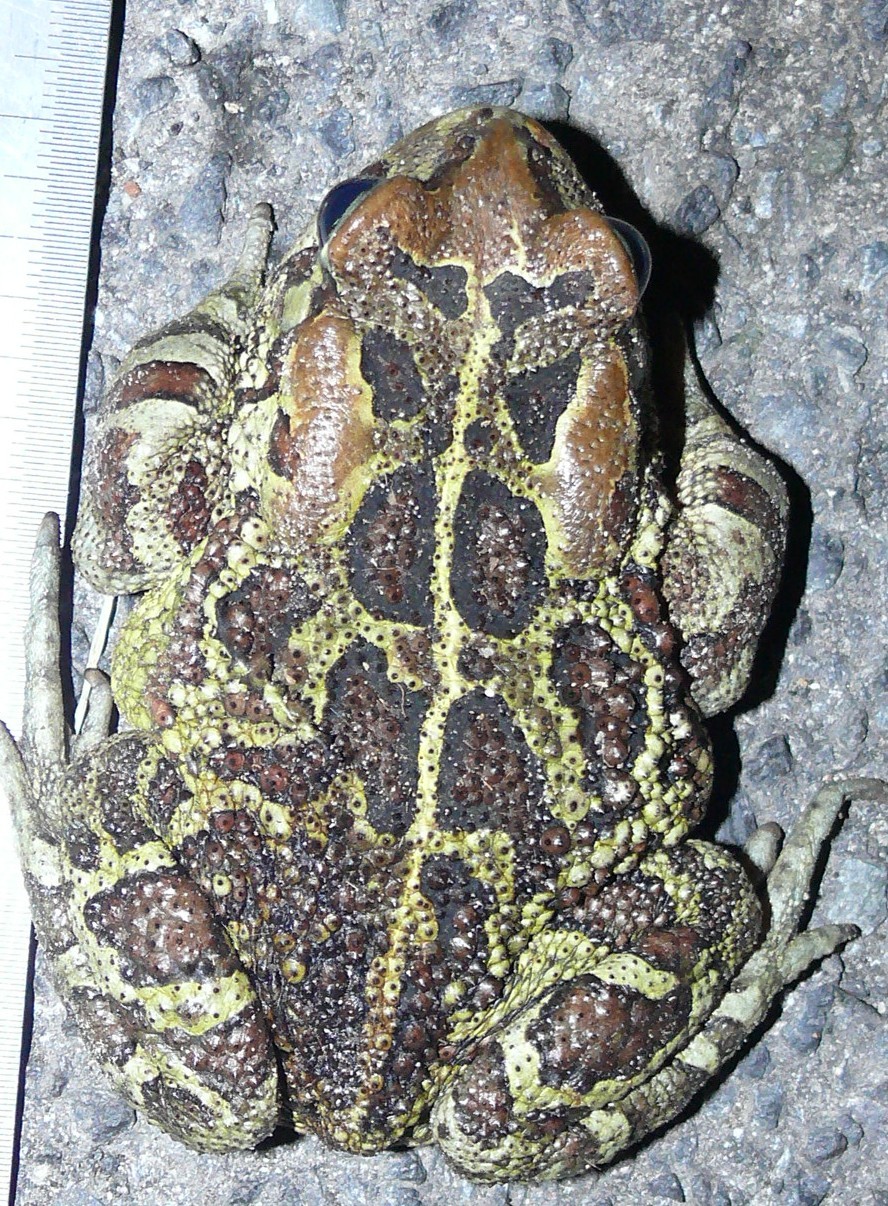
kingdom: Animalia
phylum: Chordata
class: Amphibia
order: Anura
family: Bufonidae
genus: Sclerophrys
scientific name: Sclerophrys pantherina
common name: Panther toad
